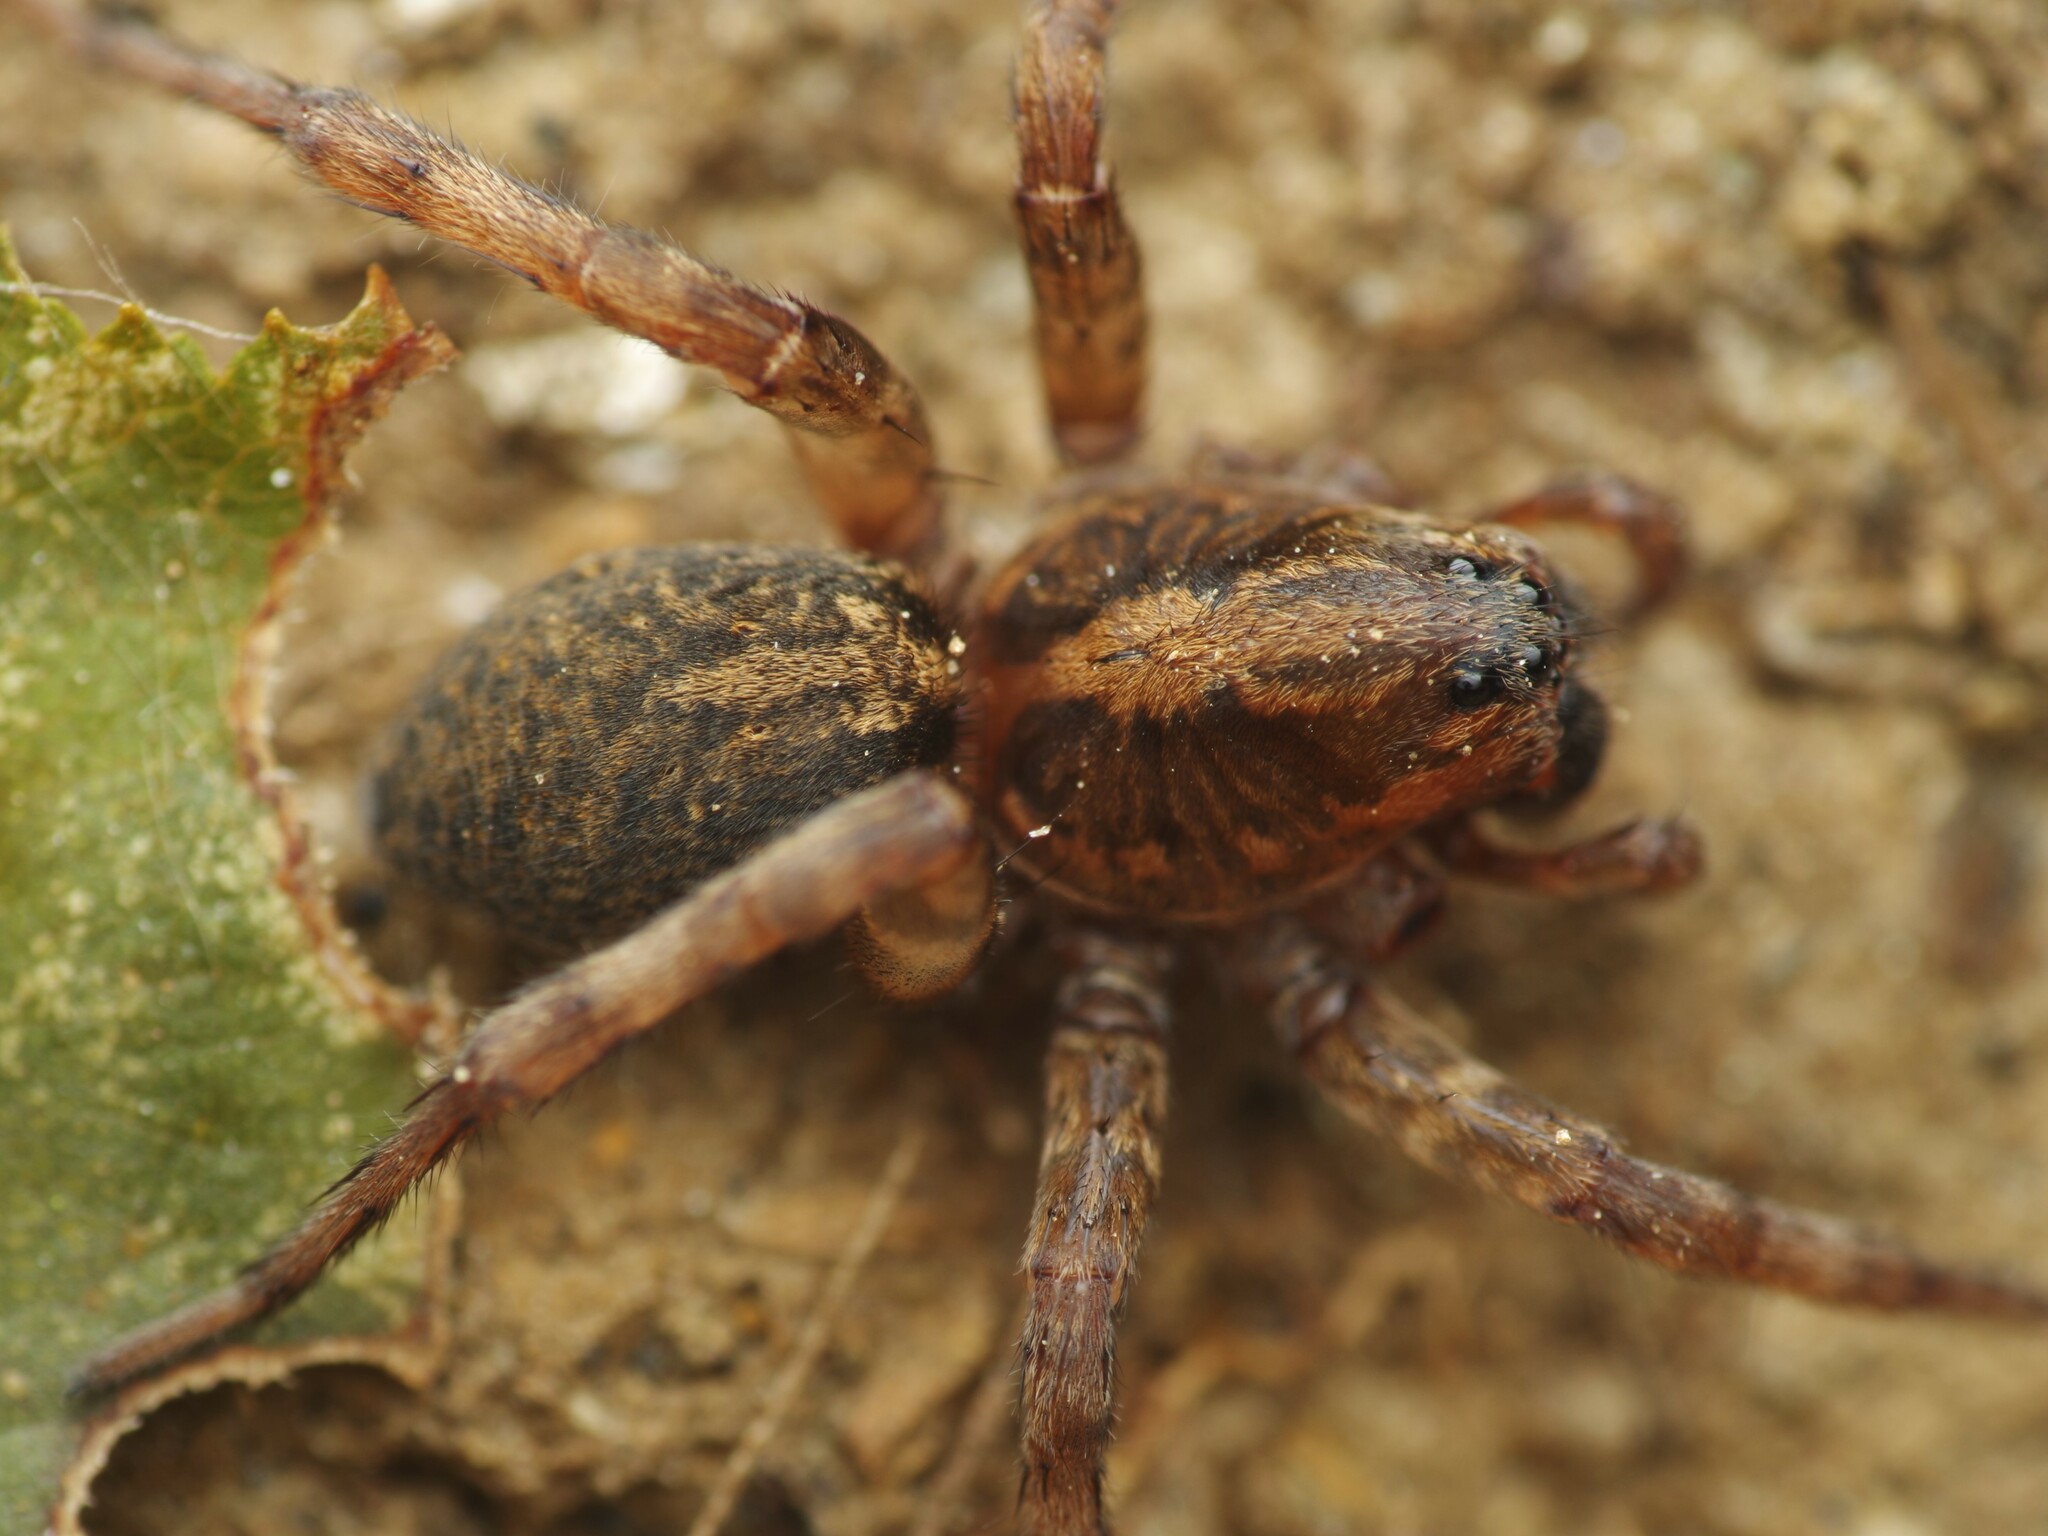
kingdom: Animalia
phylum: Arthropoda
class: Arachnida
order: Araneae
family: Lycosidae
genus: Trochosa
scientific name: Trochosa terricola
